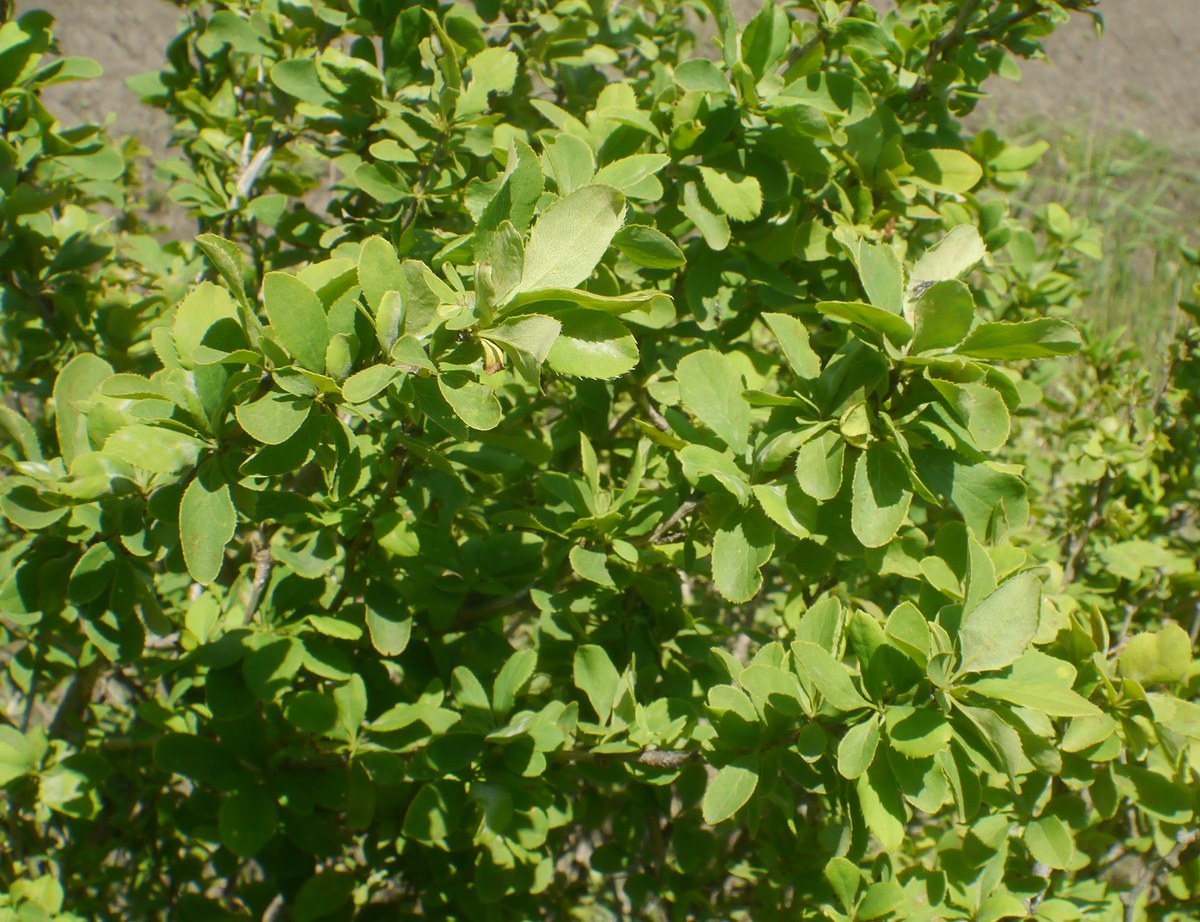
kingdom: Plantae
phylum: Tracheophyta
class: Magnoliopsida
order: Ranunculales
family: Berberidaceae
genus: Berberis
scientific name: Berberis vulgaris
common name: Barberry
